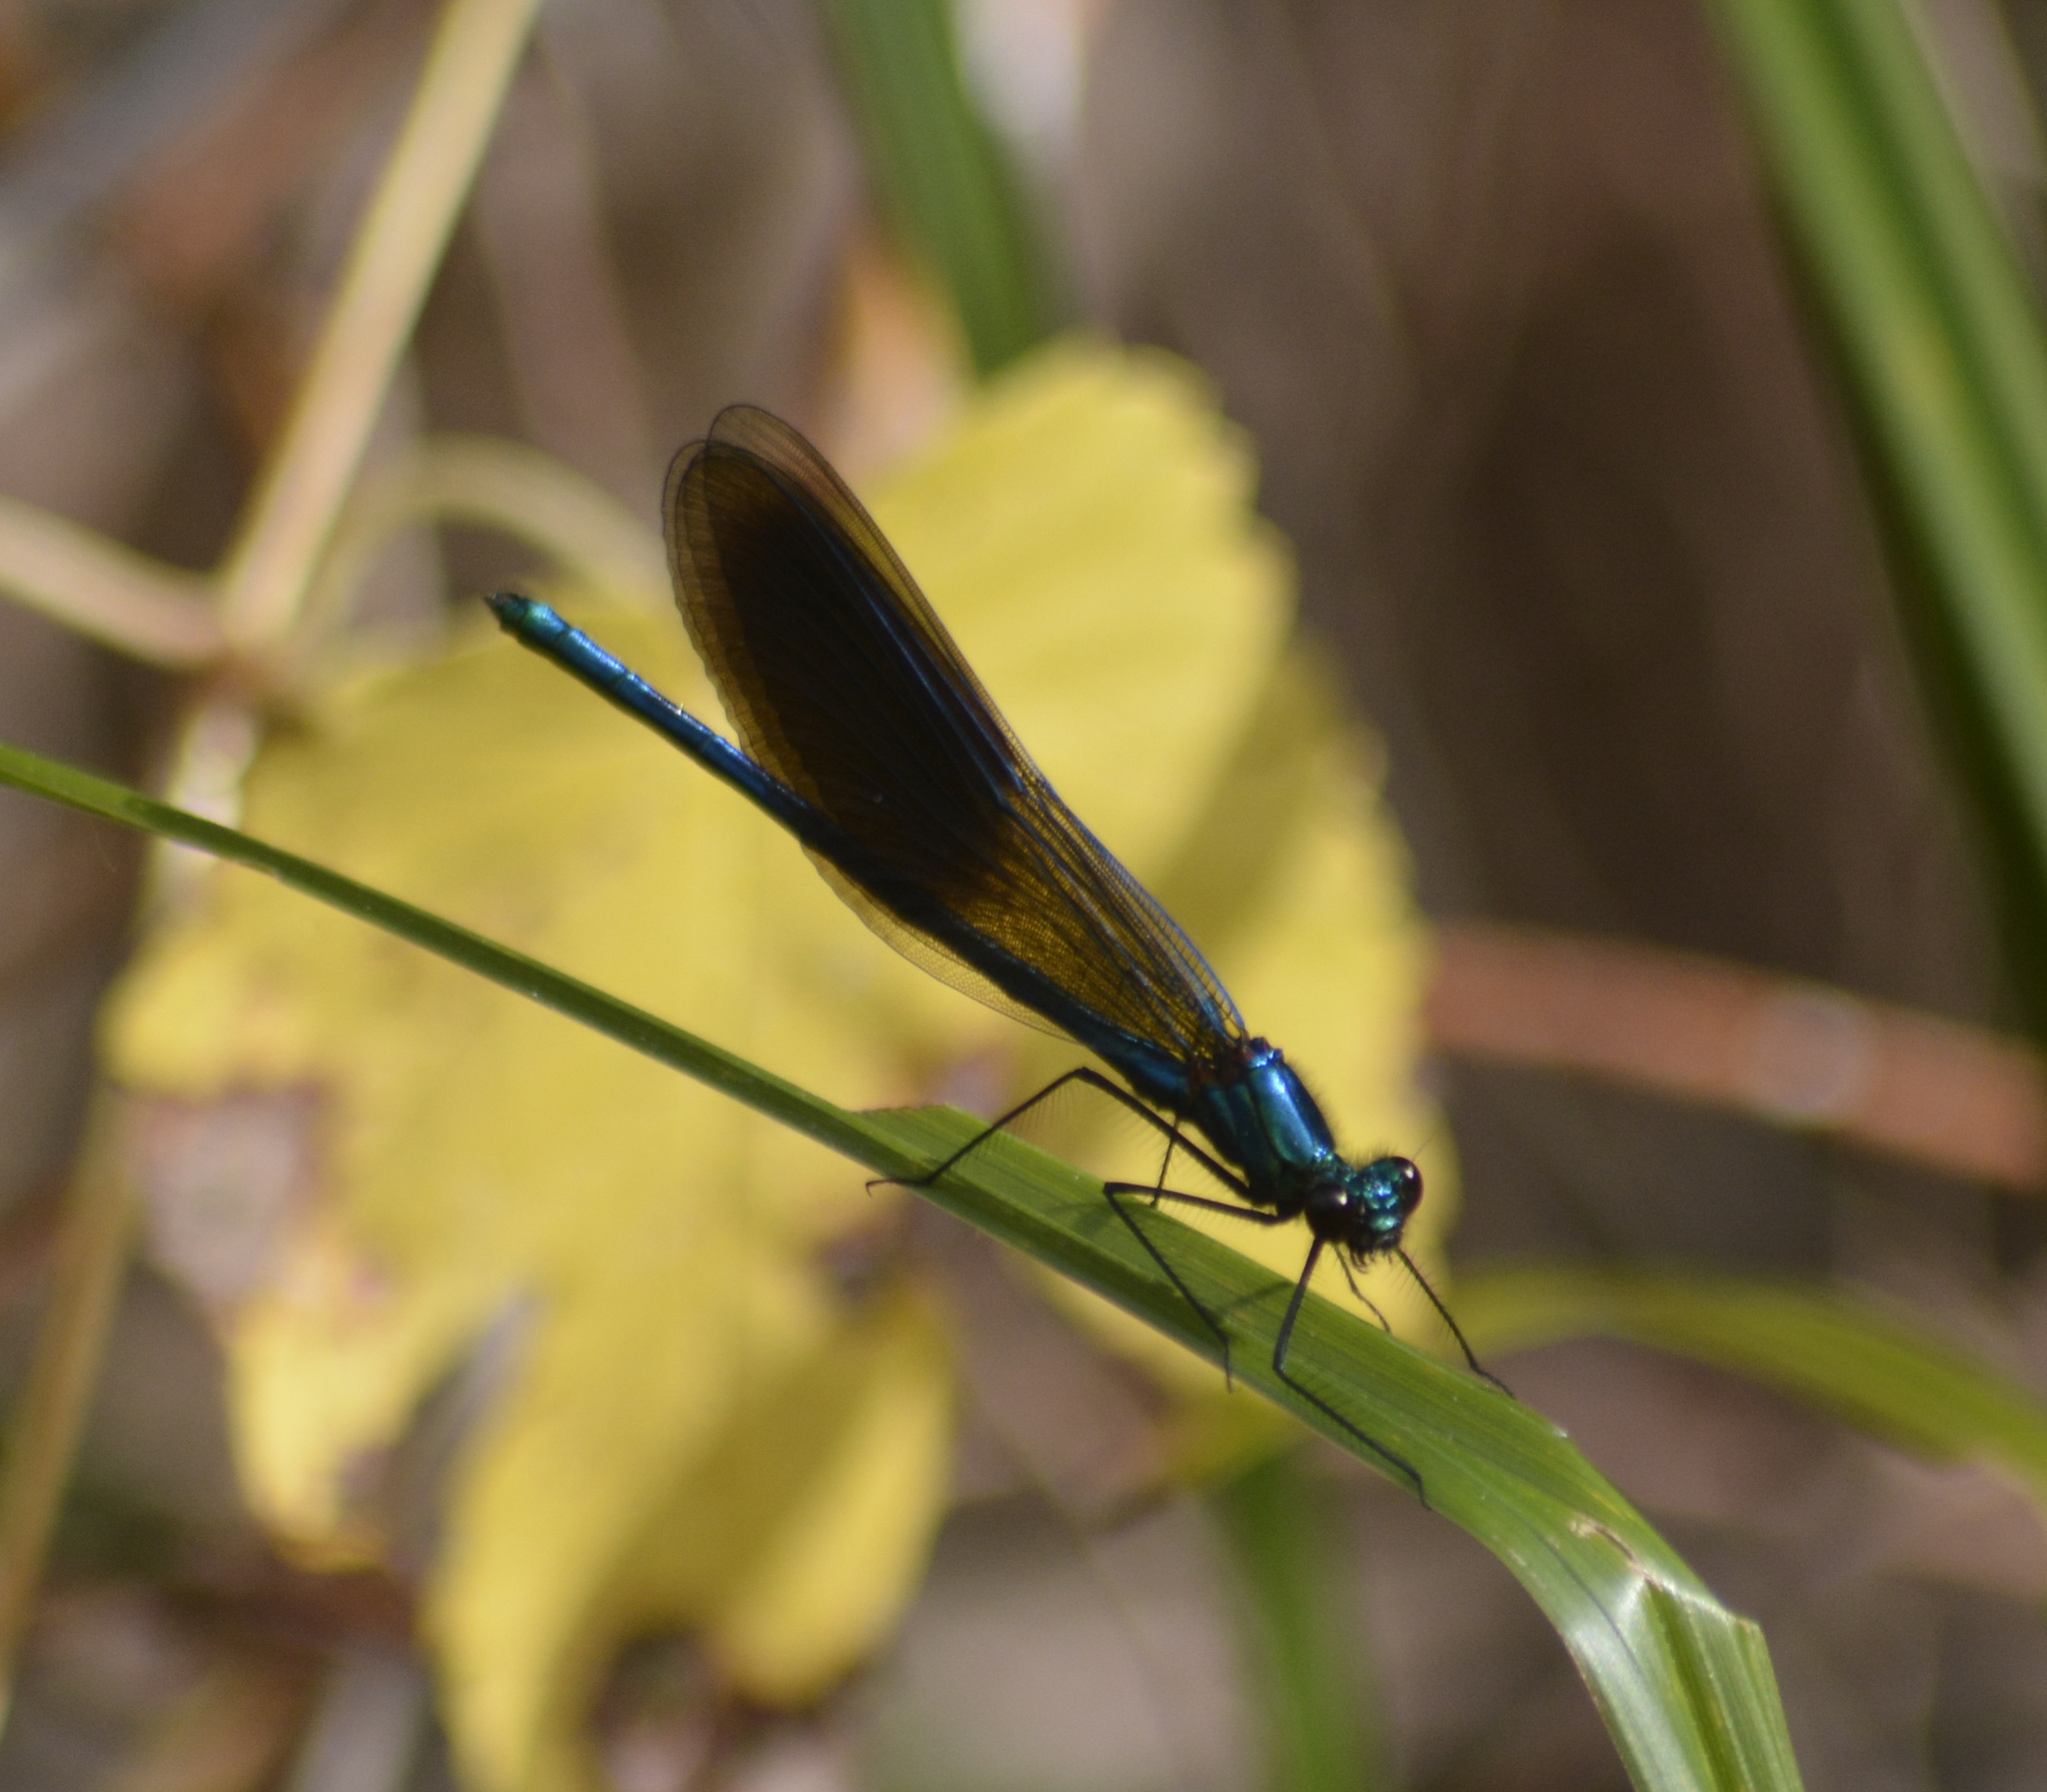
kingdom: Animalia
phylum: Arthropoda
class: Insecta
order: Odonata
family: Calopterygidae
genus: Calopteryx
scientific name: Calopteryx splendens
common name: Banded demoiselle
